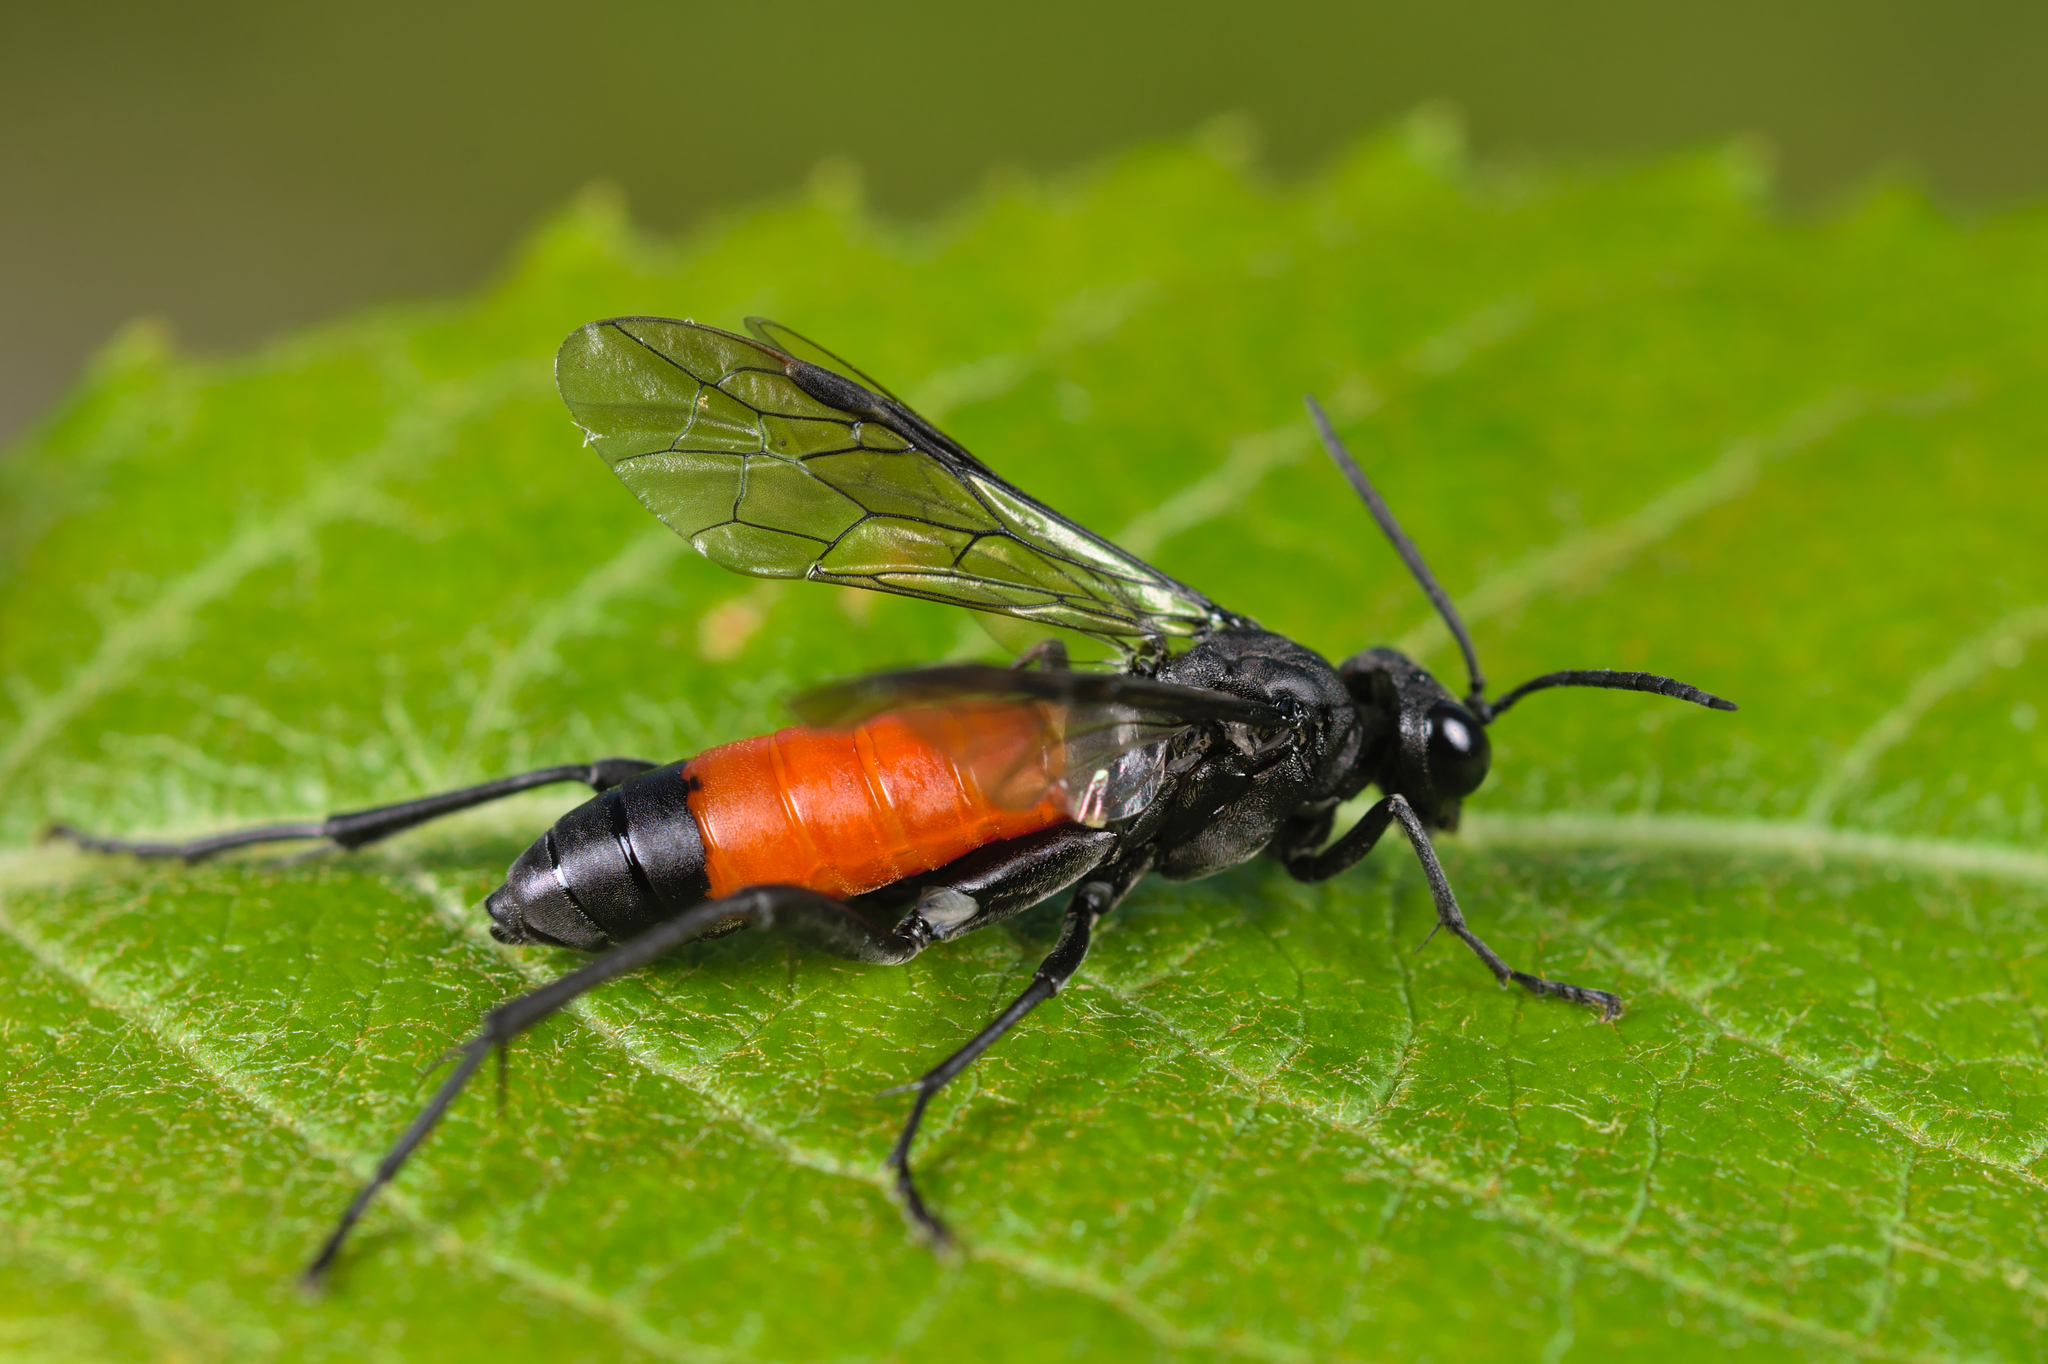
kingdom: Animalia
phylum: Arthropoda
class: Insecta
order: Hymenoptera
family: Tenthredinidae
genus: Macrophya
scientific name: Macrophya annulata
